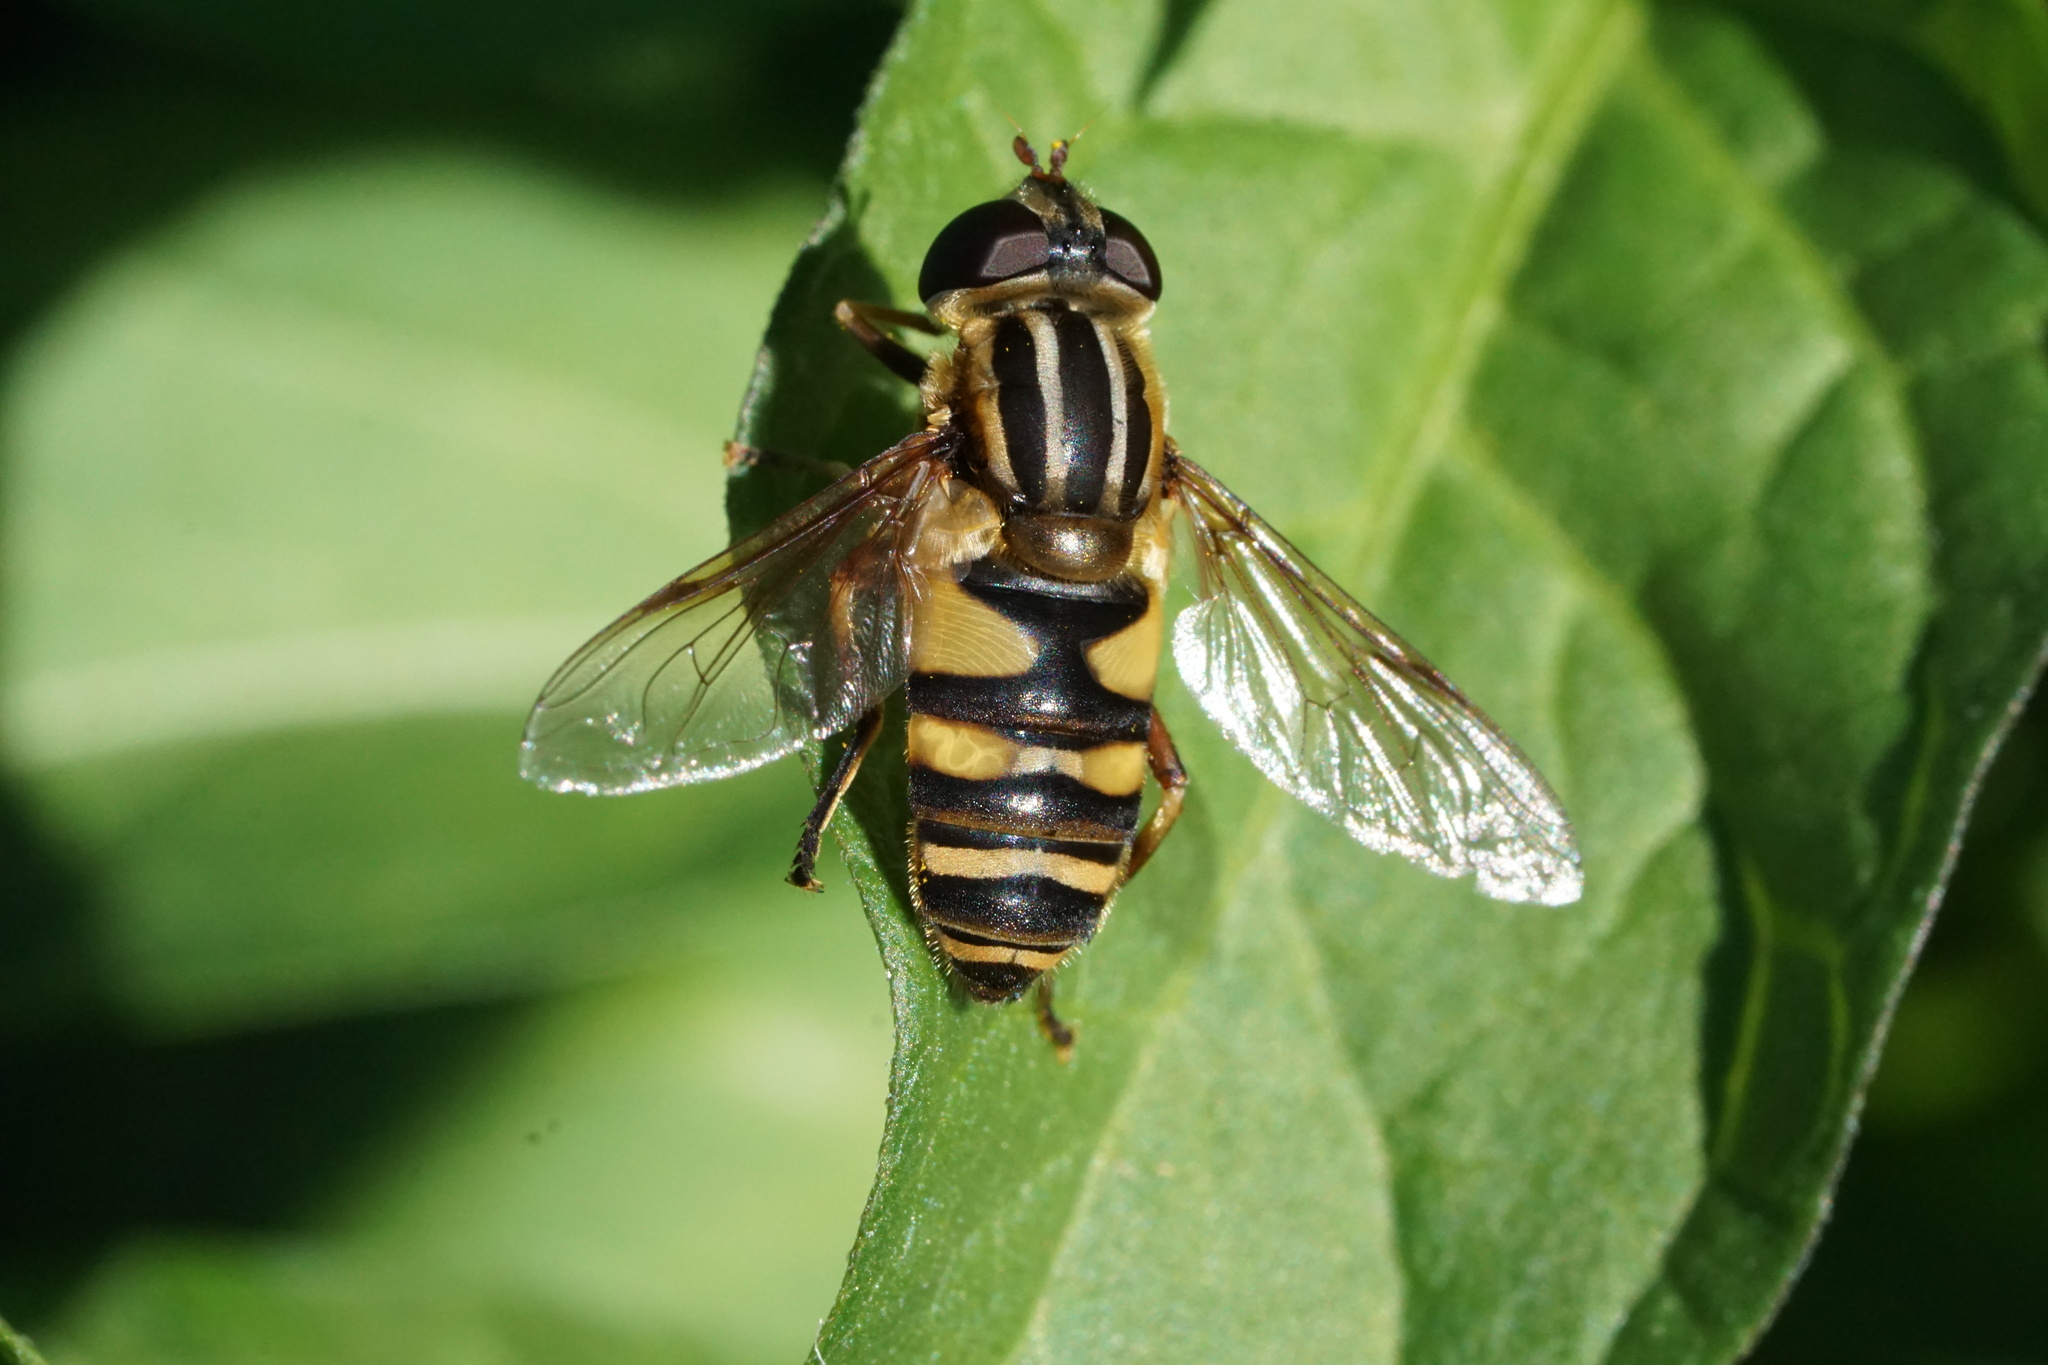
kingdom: Animalia
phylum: Arthropoda
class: Insecta
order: Diptera
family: Syrphidae
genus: Helophilus
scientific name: Helophilus fasciatus
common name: Narrow-headed marsh fly
